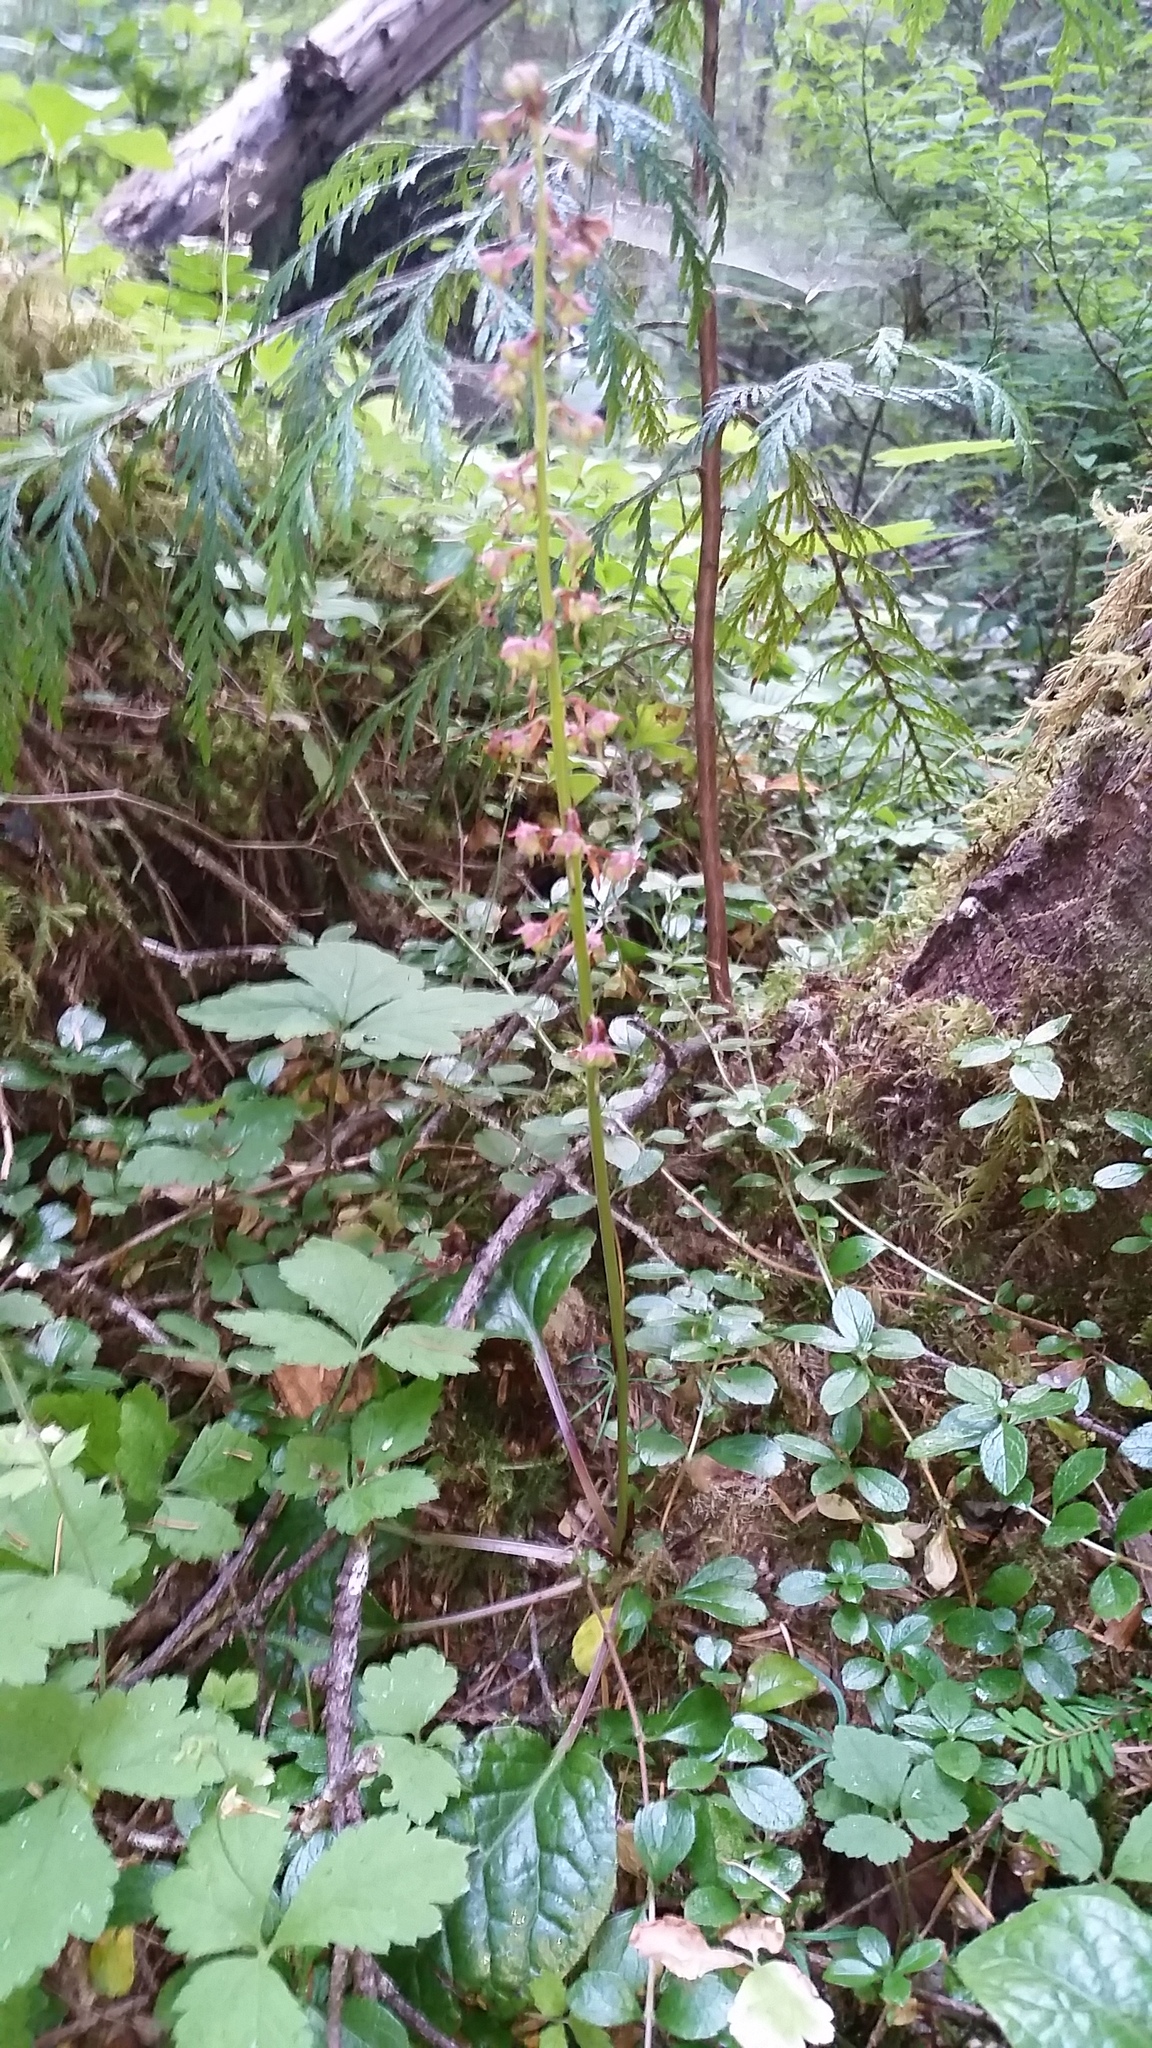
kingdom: Plantae
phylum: Tracheophyta
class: Magnoliopsida
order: Ericales
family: Ericaceae
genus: Pyrola
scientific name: Pyrola asarifolia
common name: Bog wintergreen
